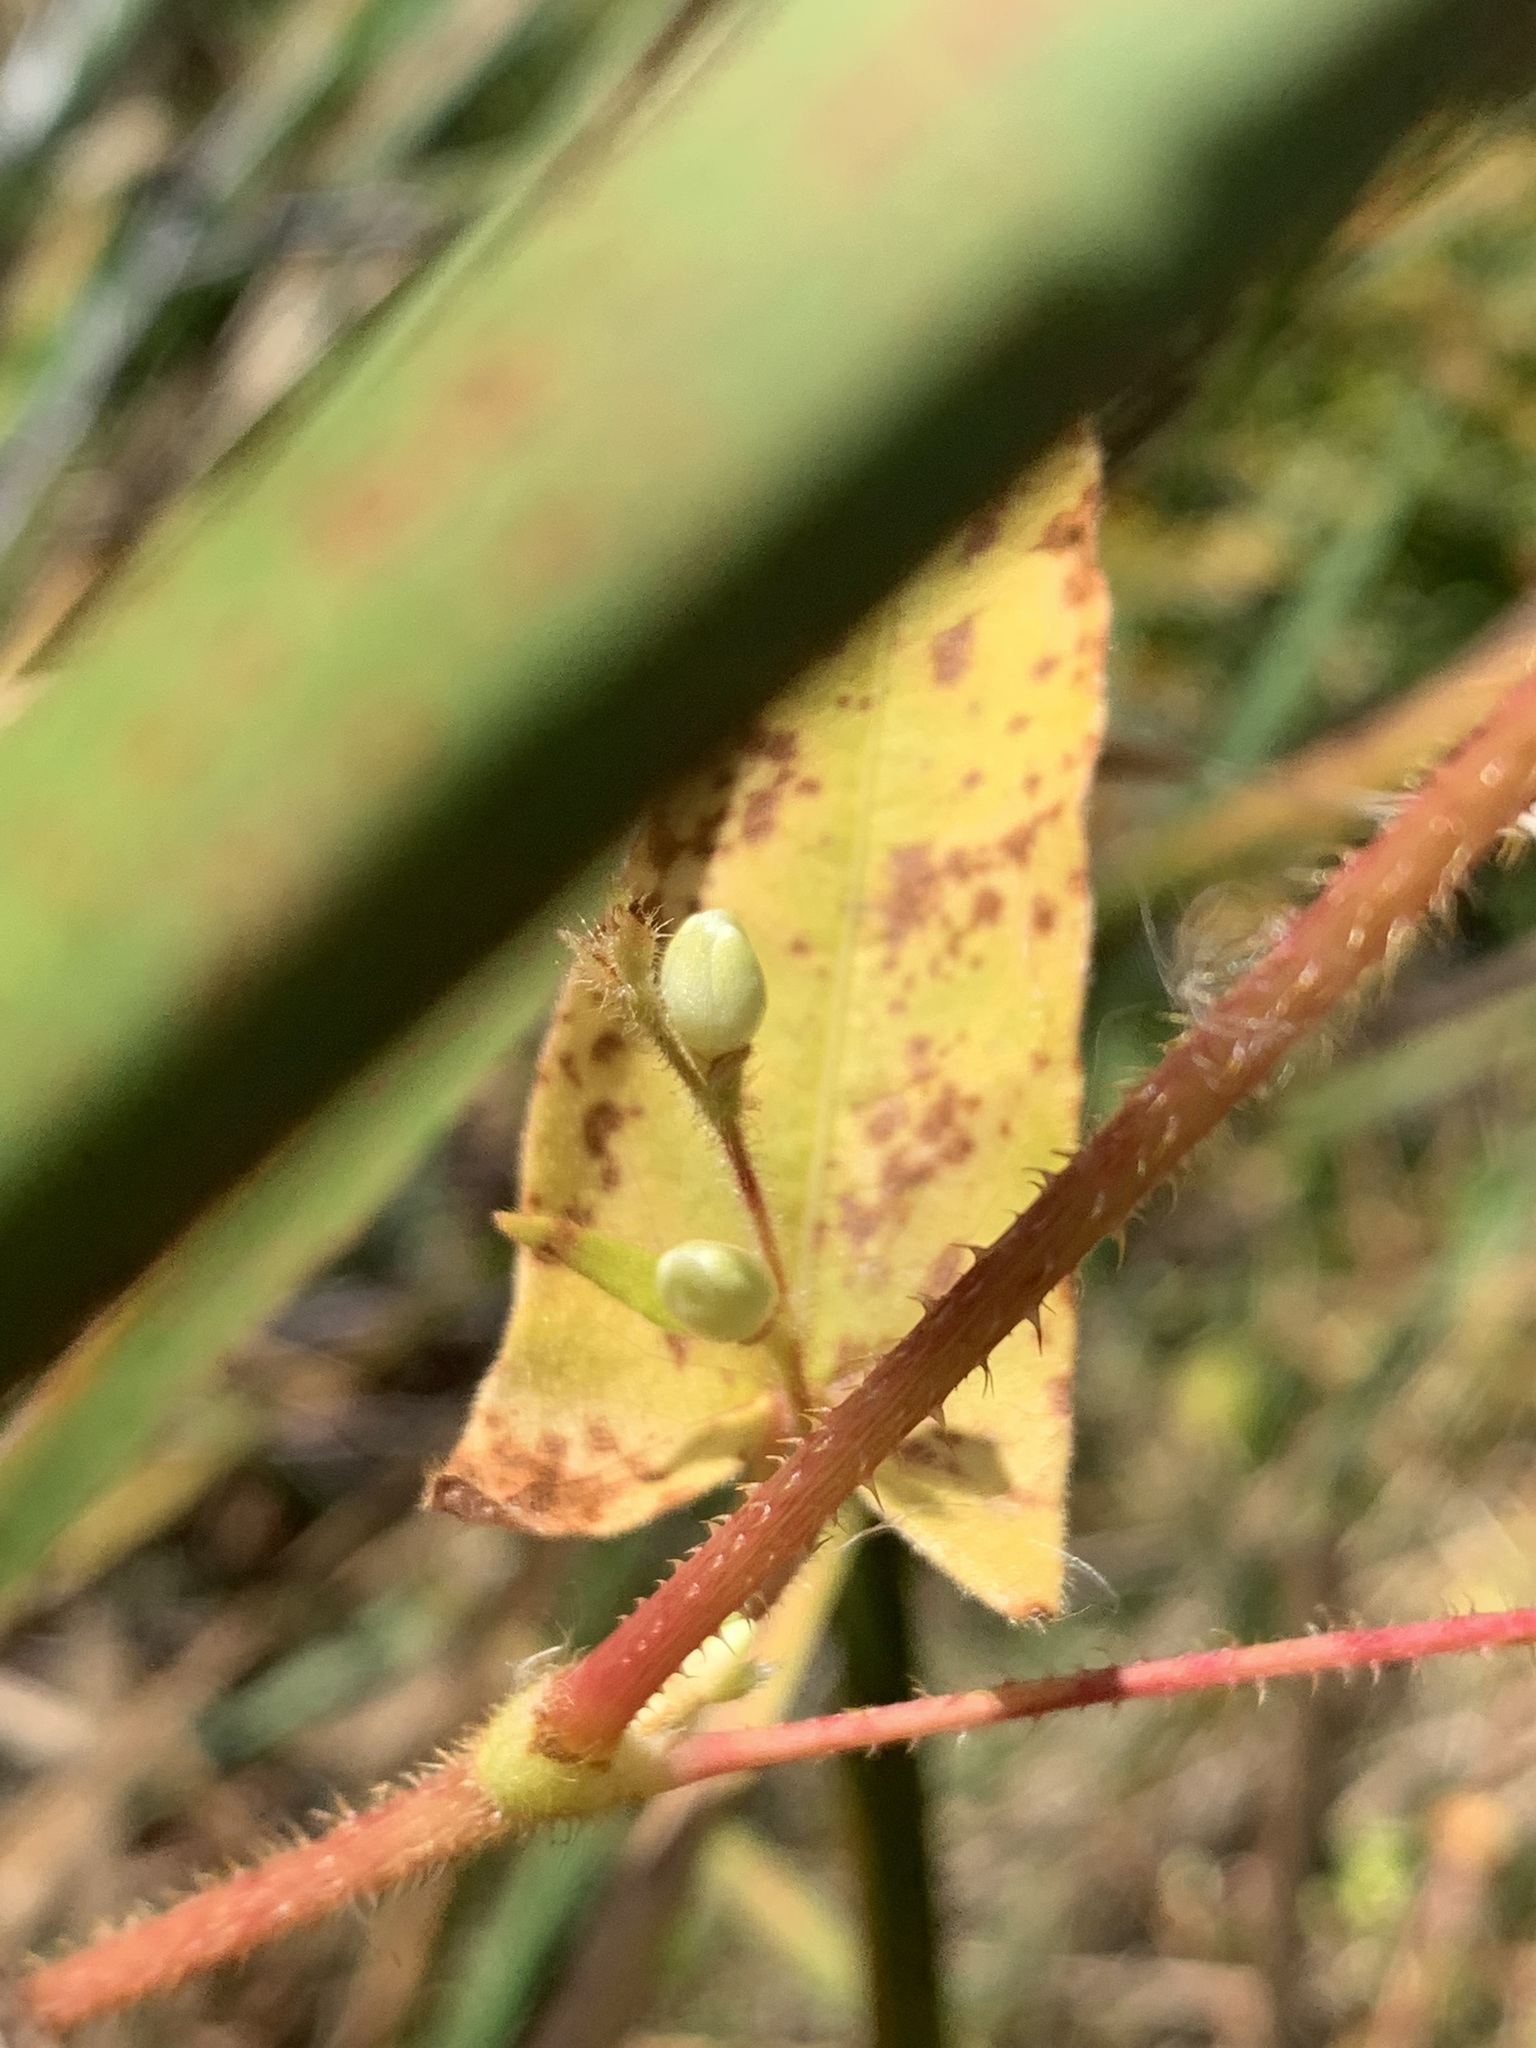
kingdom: Plantae
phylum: Tracheophyta
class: Magnoliopsida
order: Caryophyllales
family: Polygonaceae
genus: Persicaria
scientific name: Persicaria arifolia
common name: Halberd-leaved tear-thumb
